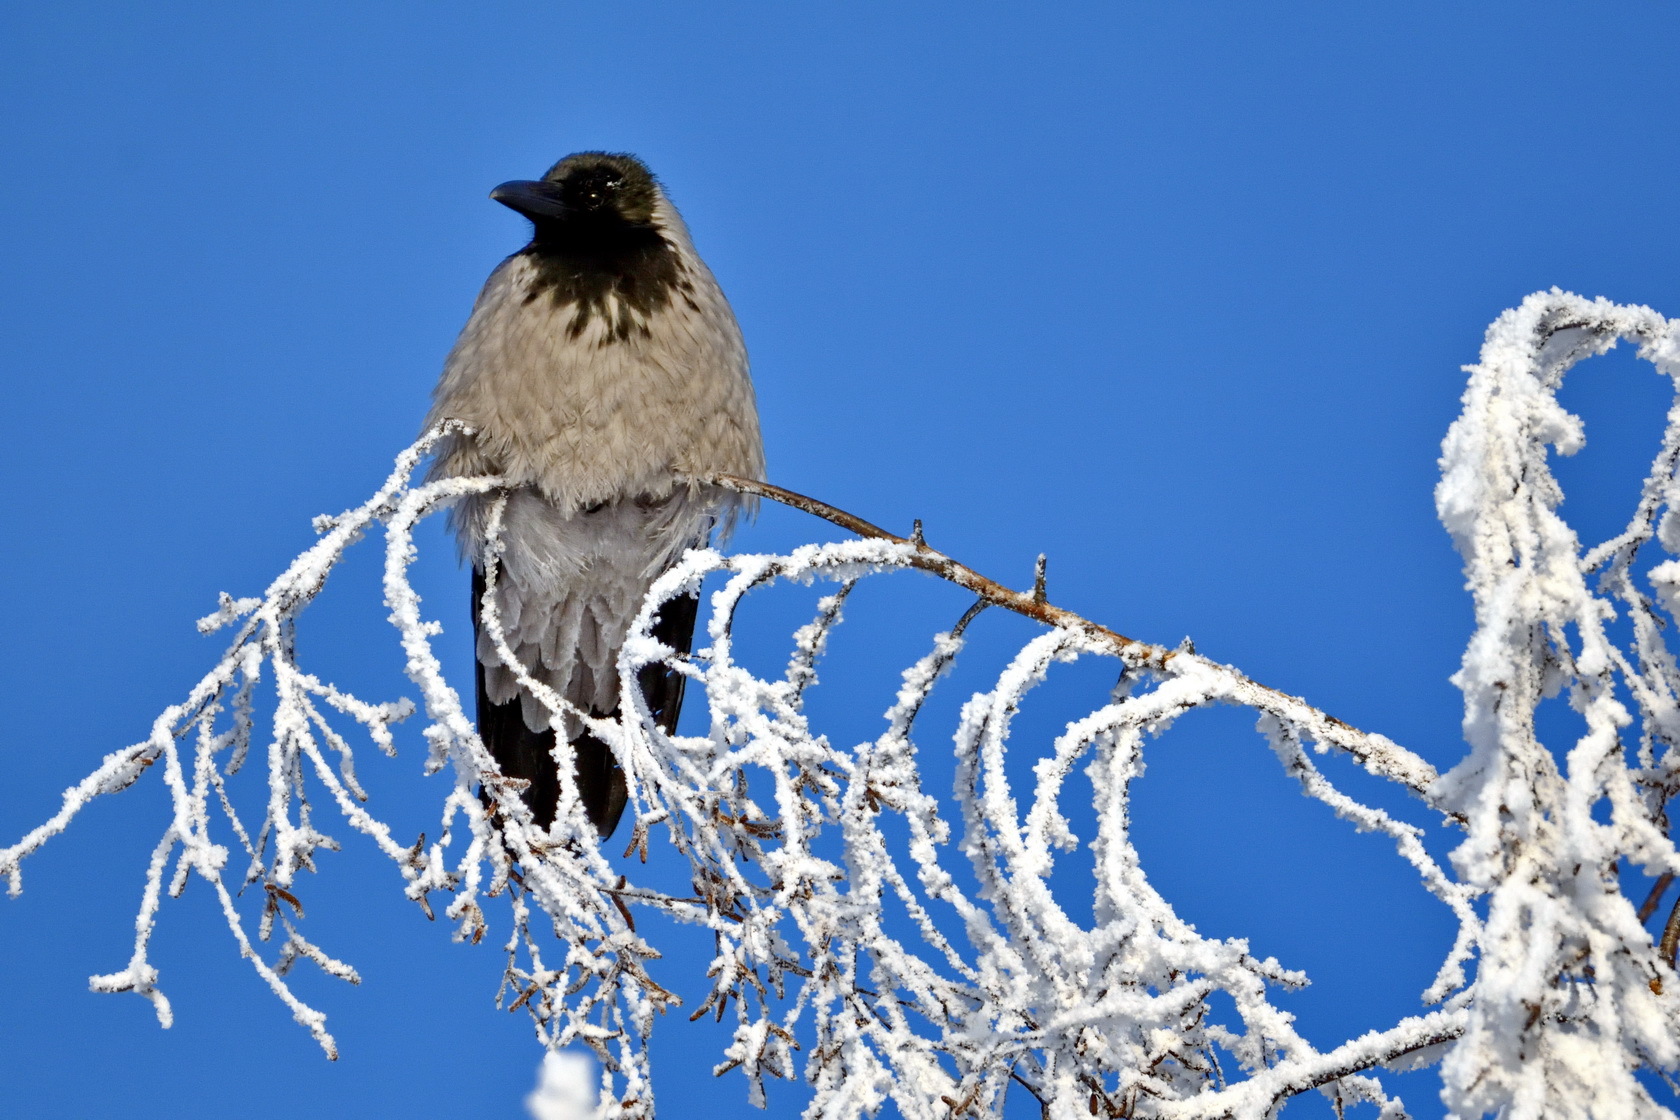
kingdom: Animalia
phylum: Chordata
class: Aves
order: Passeriformes
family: Corvidae
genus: Corvus
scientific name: Corvus cornix
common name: Hooded crow
